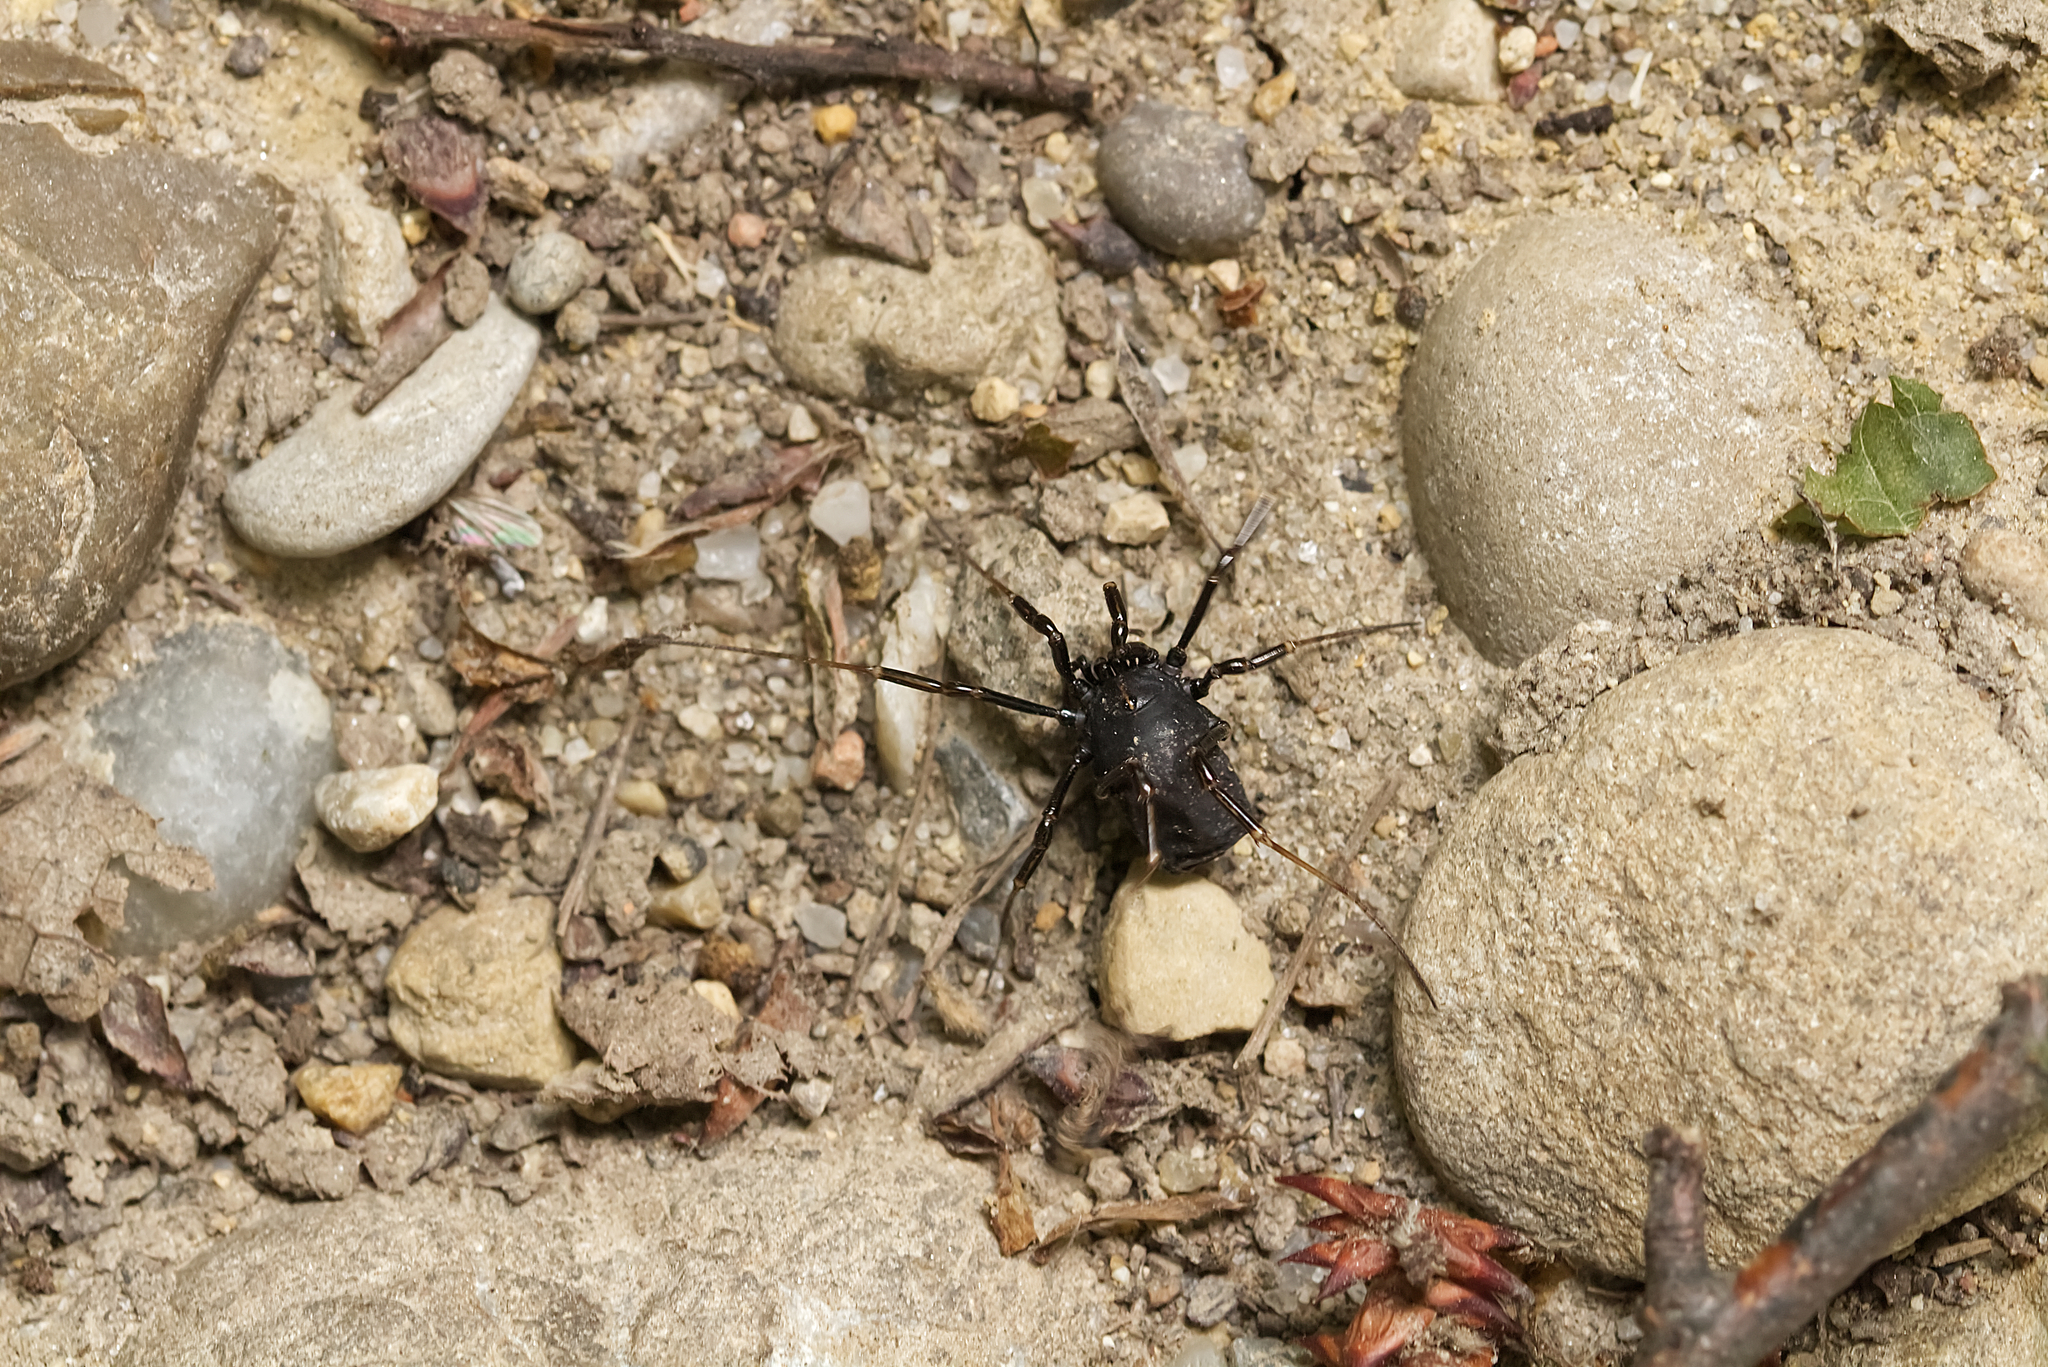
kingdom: Animalia
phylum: Arthropoda
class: Arachnida
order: Opiliones
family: Phalangiidae
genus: Egaenus
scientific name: Egaenus convexus
